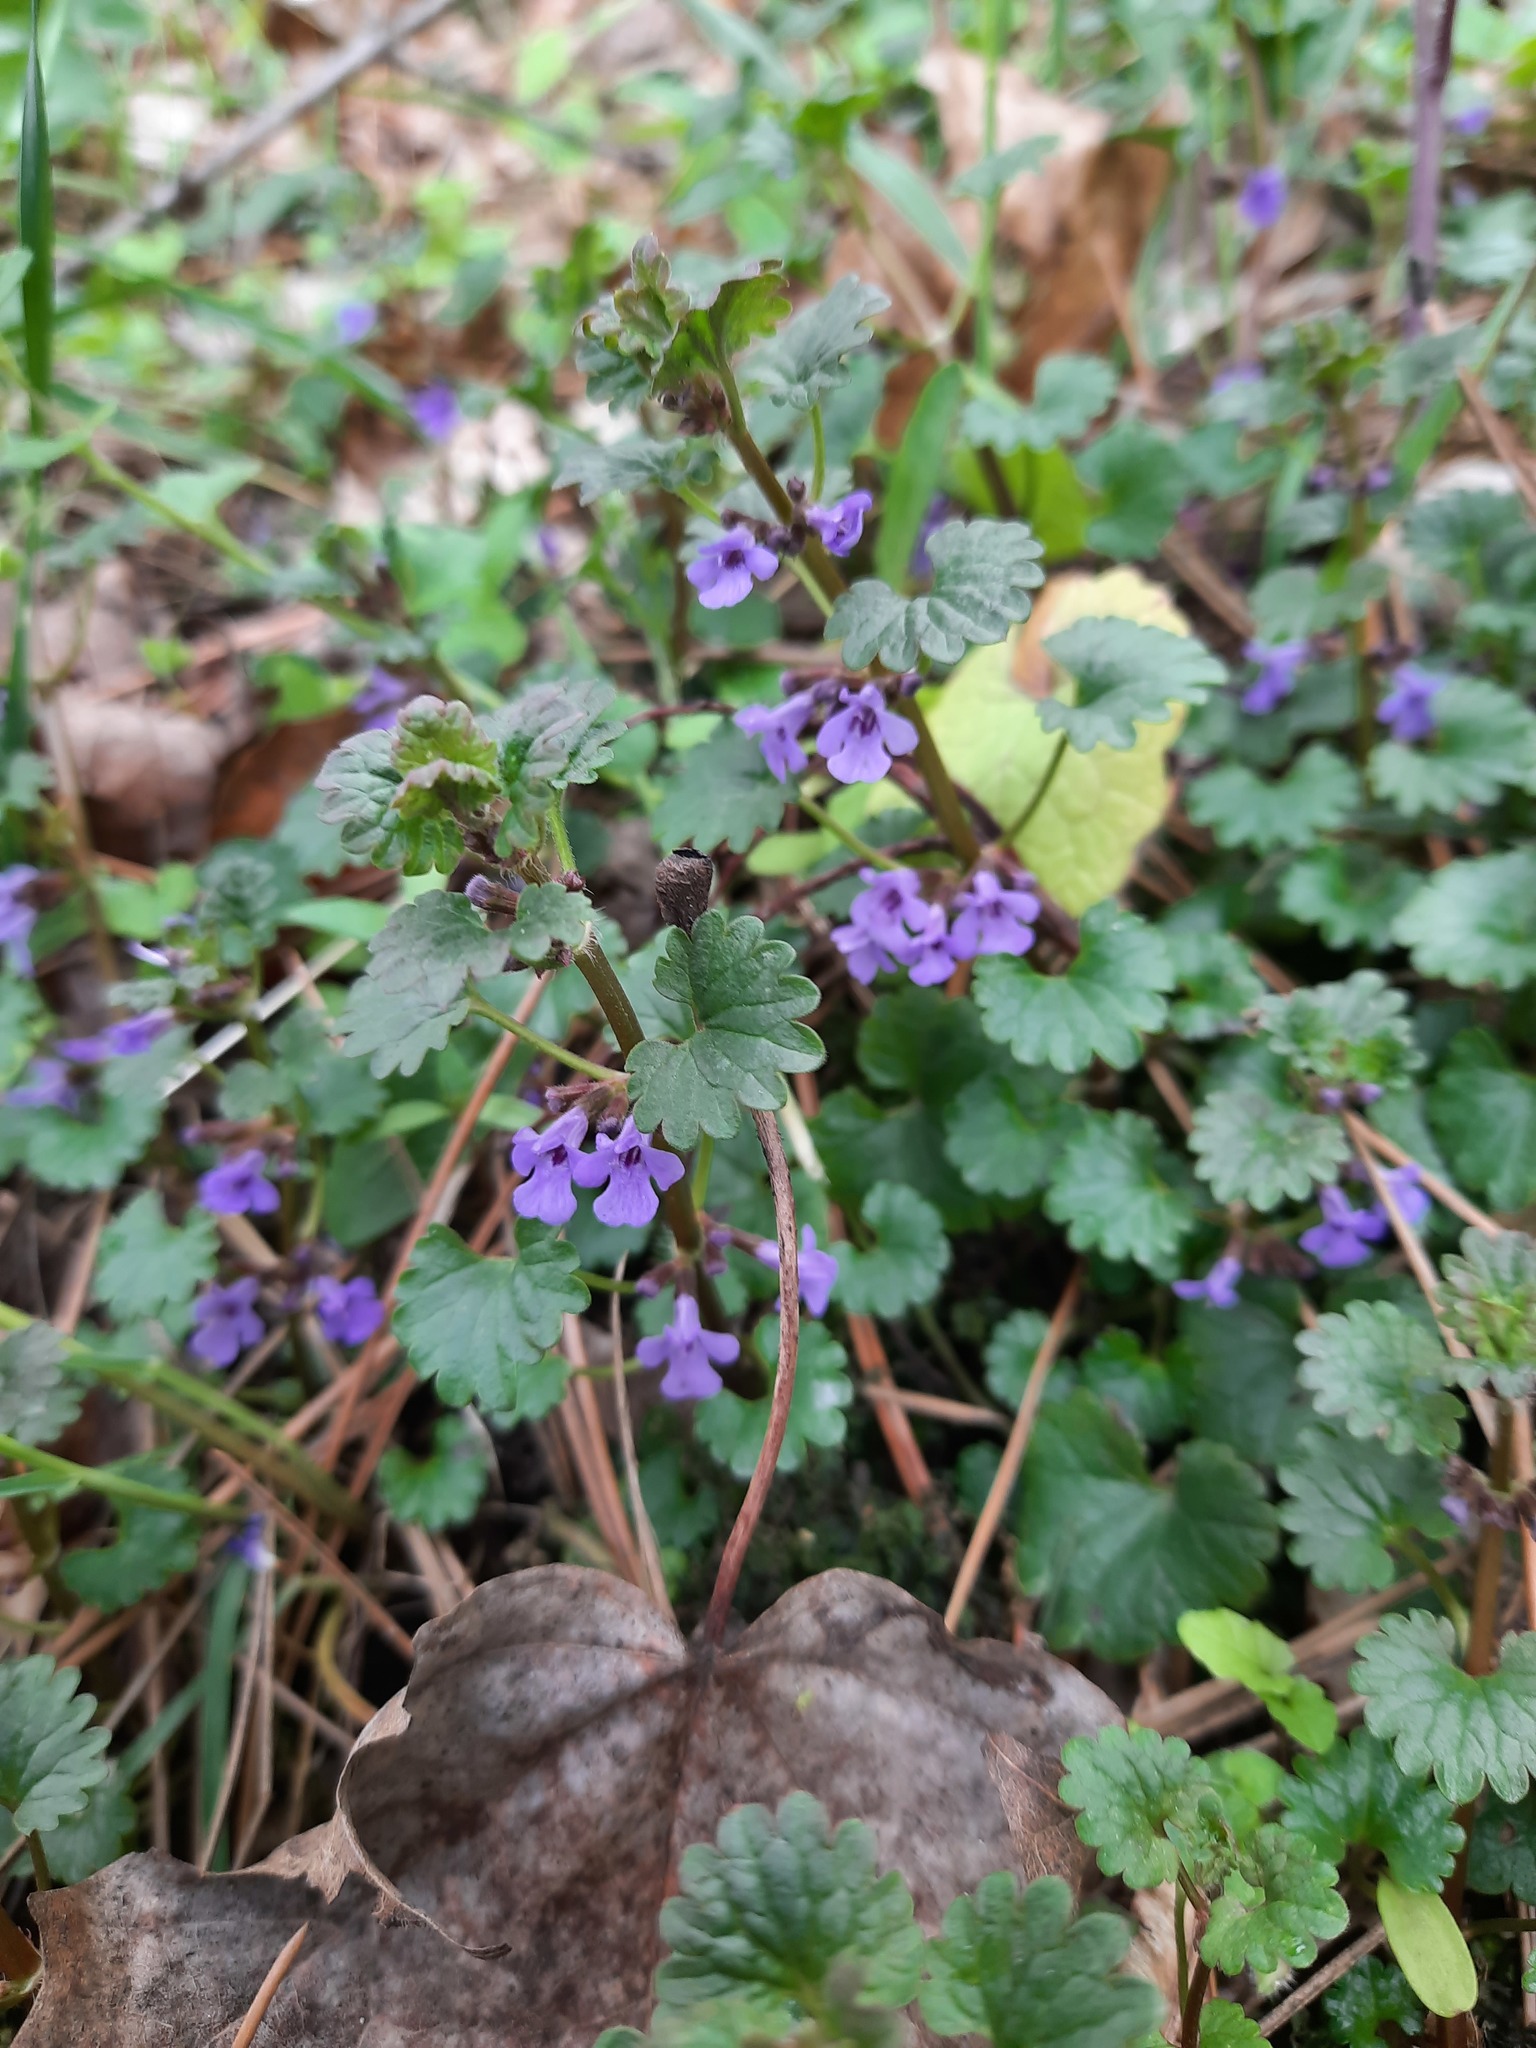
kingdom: Plantae
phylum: Tracheophyta
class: Magnoliopsida
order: Lamiales
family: Lamiaceae
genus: Glechoma
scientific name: Glechoma hederacea
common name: Ground ivy
